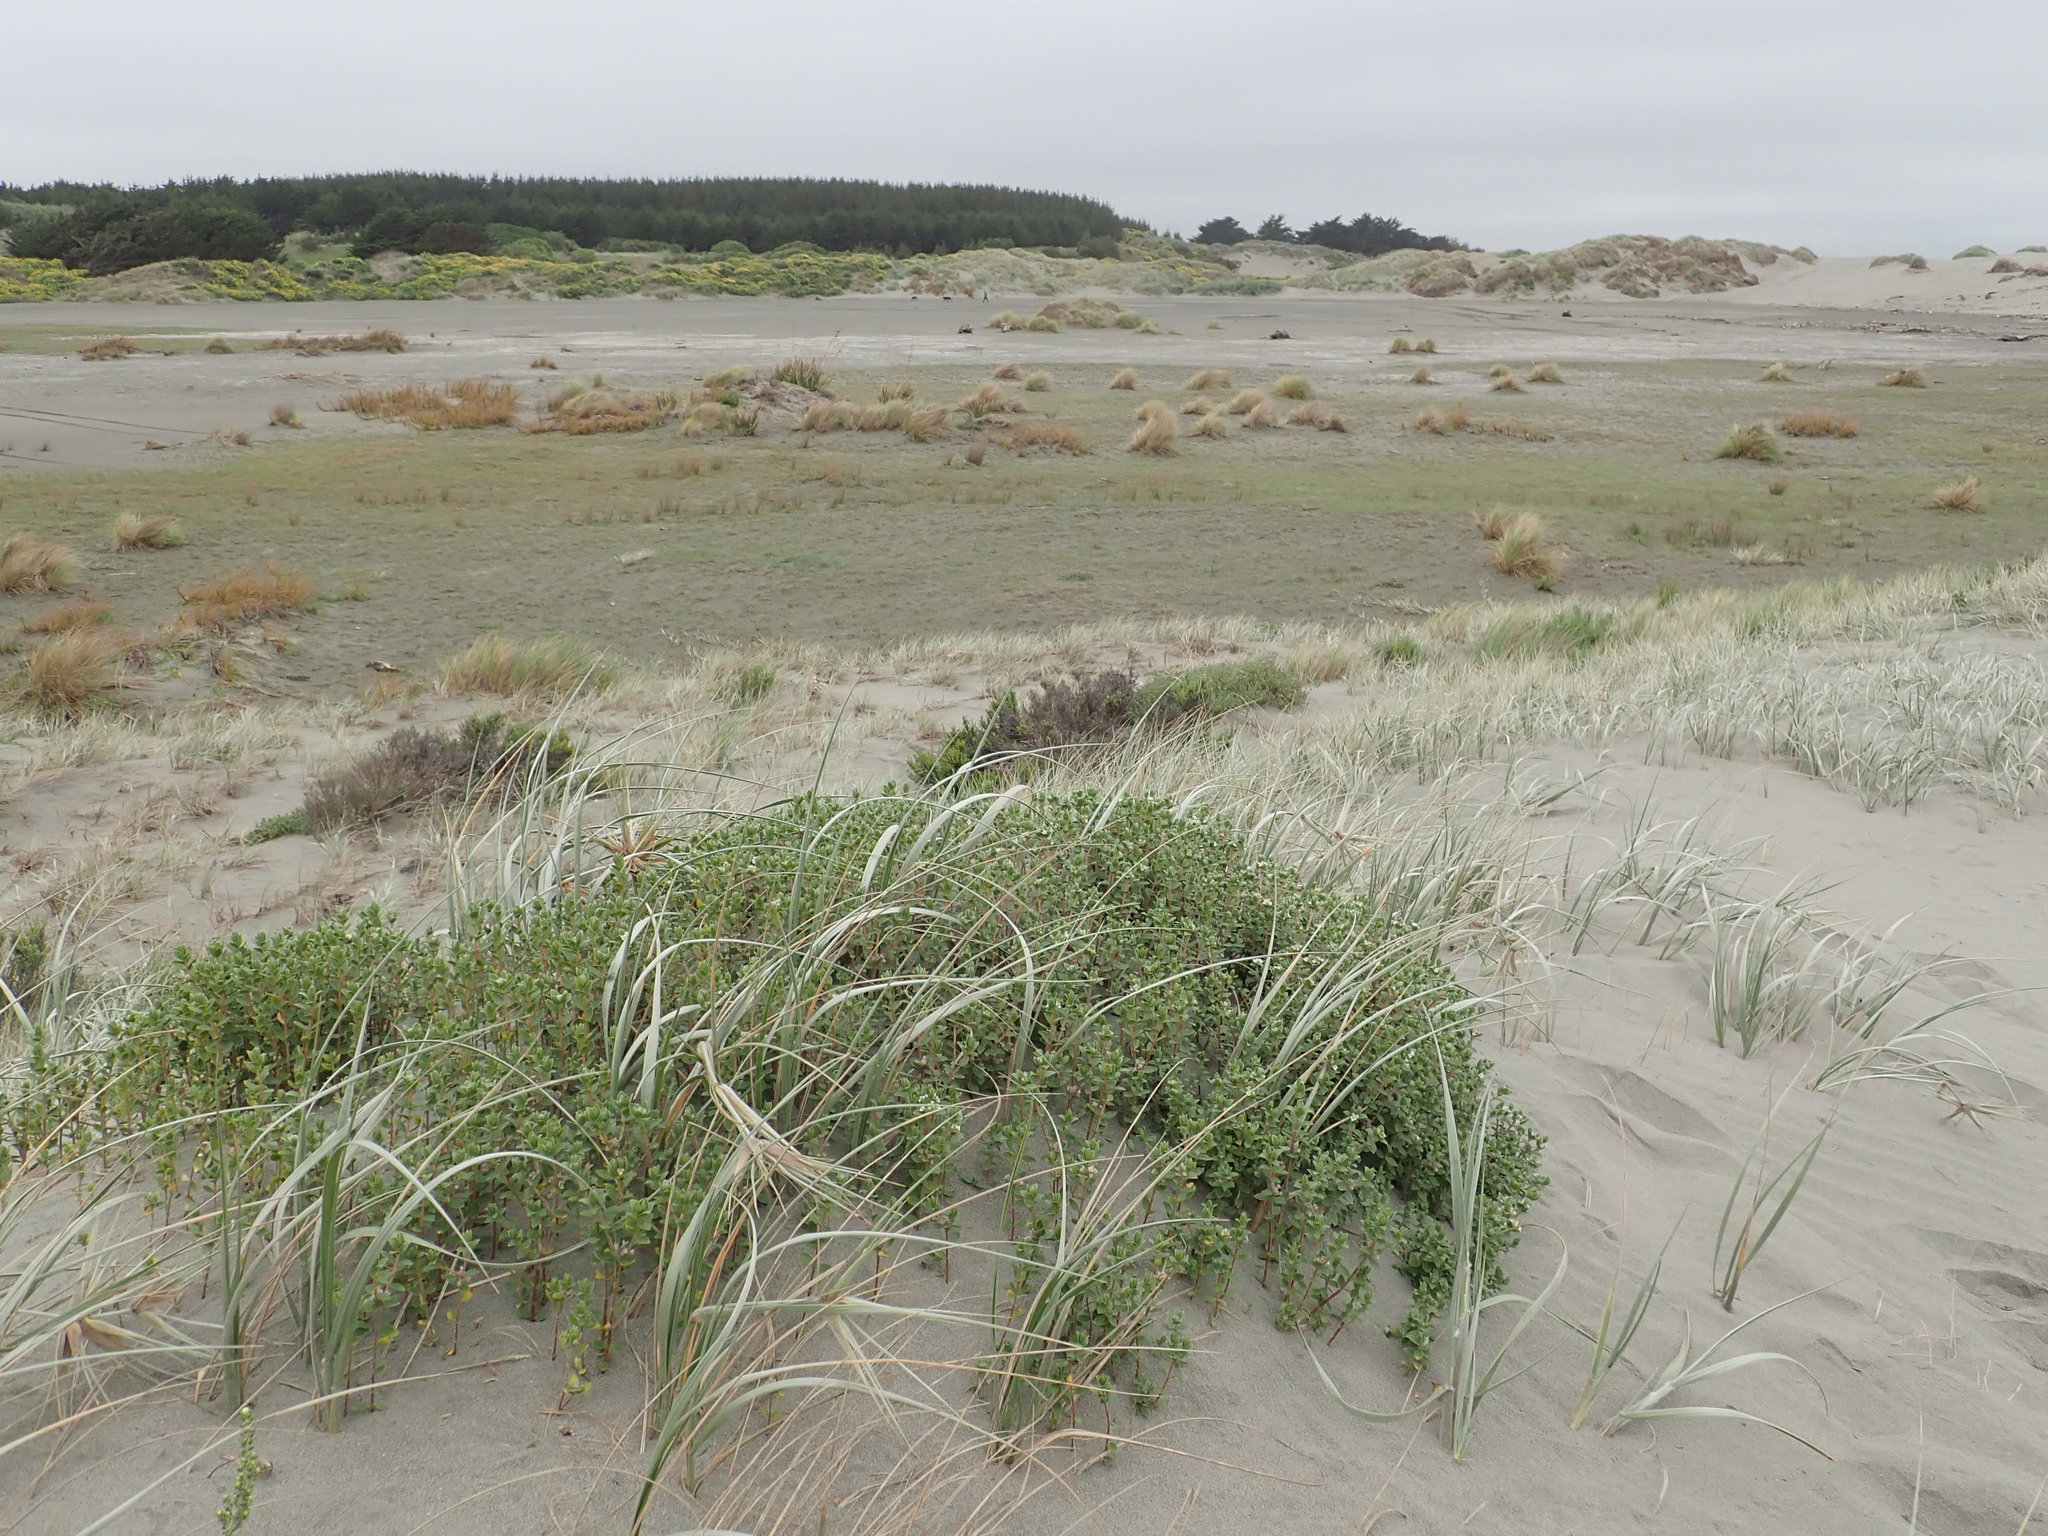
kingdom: Plantae
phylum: Tracheophyta
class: Magnoliopsida
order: Malvales
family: Thymelaeaceae
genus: Pimelea
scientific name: Pimelea villosa
